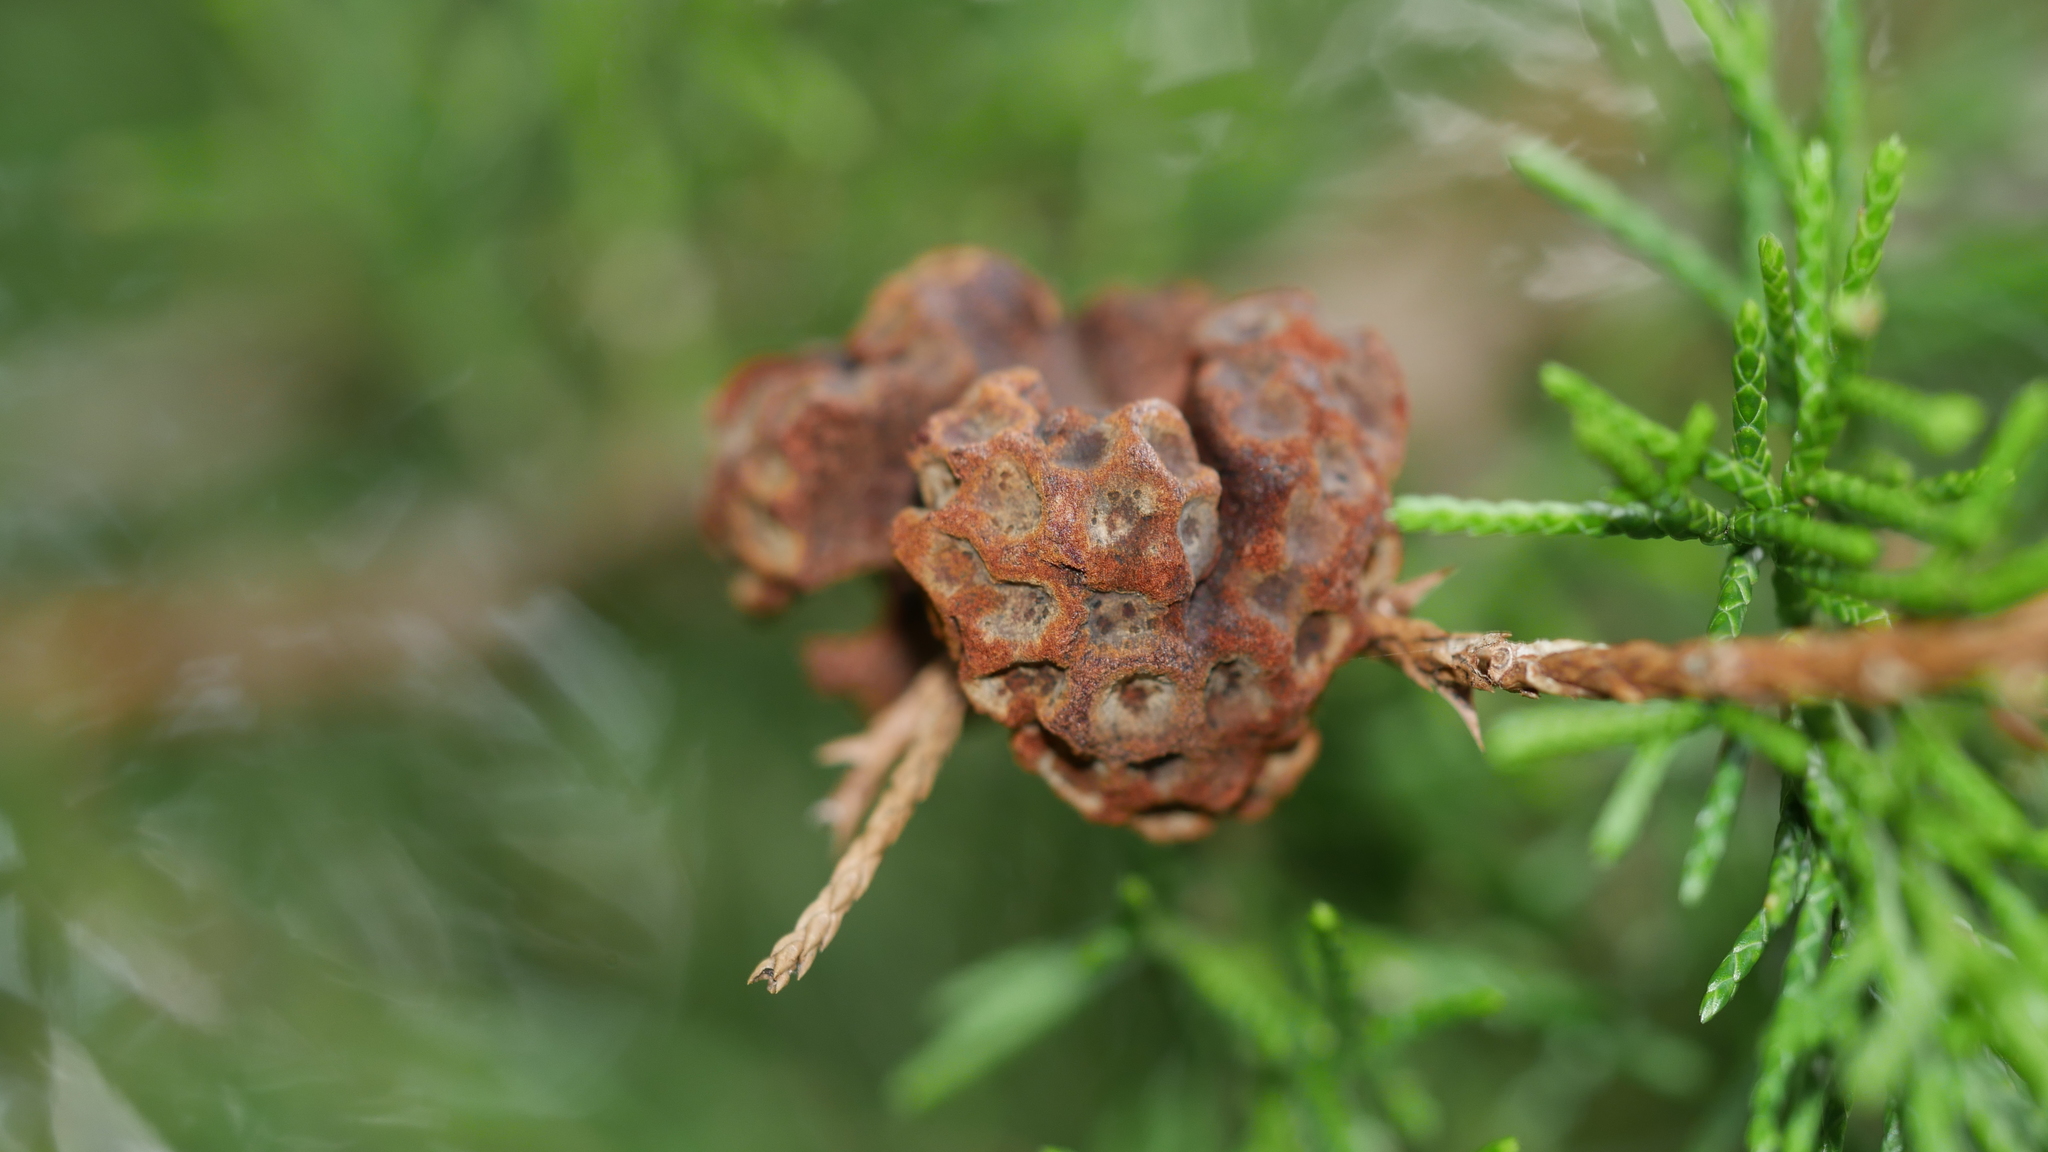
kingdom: Fungi
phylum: Basidiomycota
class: Pucciniomycetes
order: Pucciniales
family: Gymnosporangiaceae
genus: Gymnosporangium
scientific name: Gymnosporangium juniperi-virginianae
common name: Juniper-apple rust
